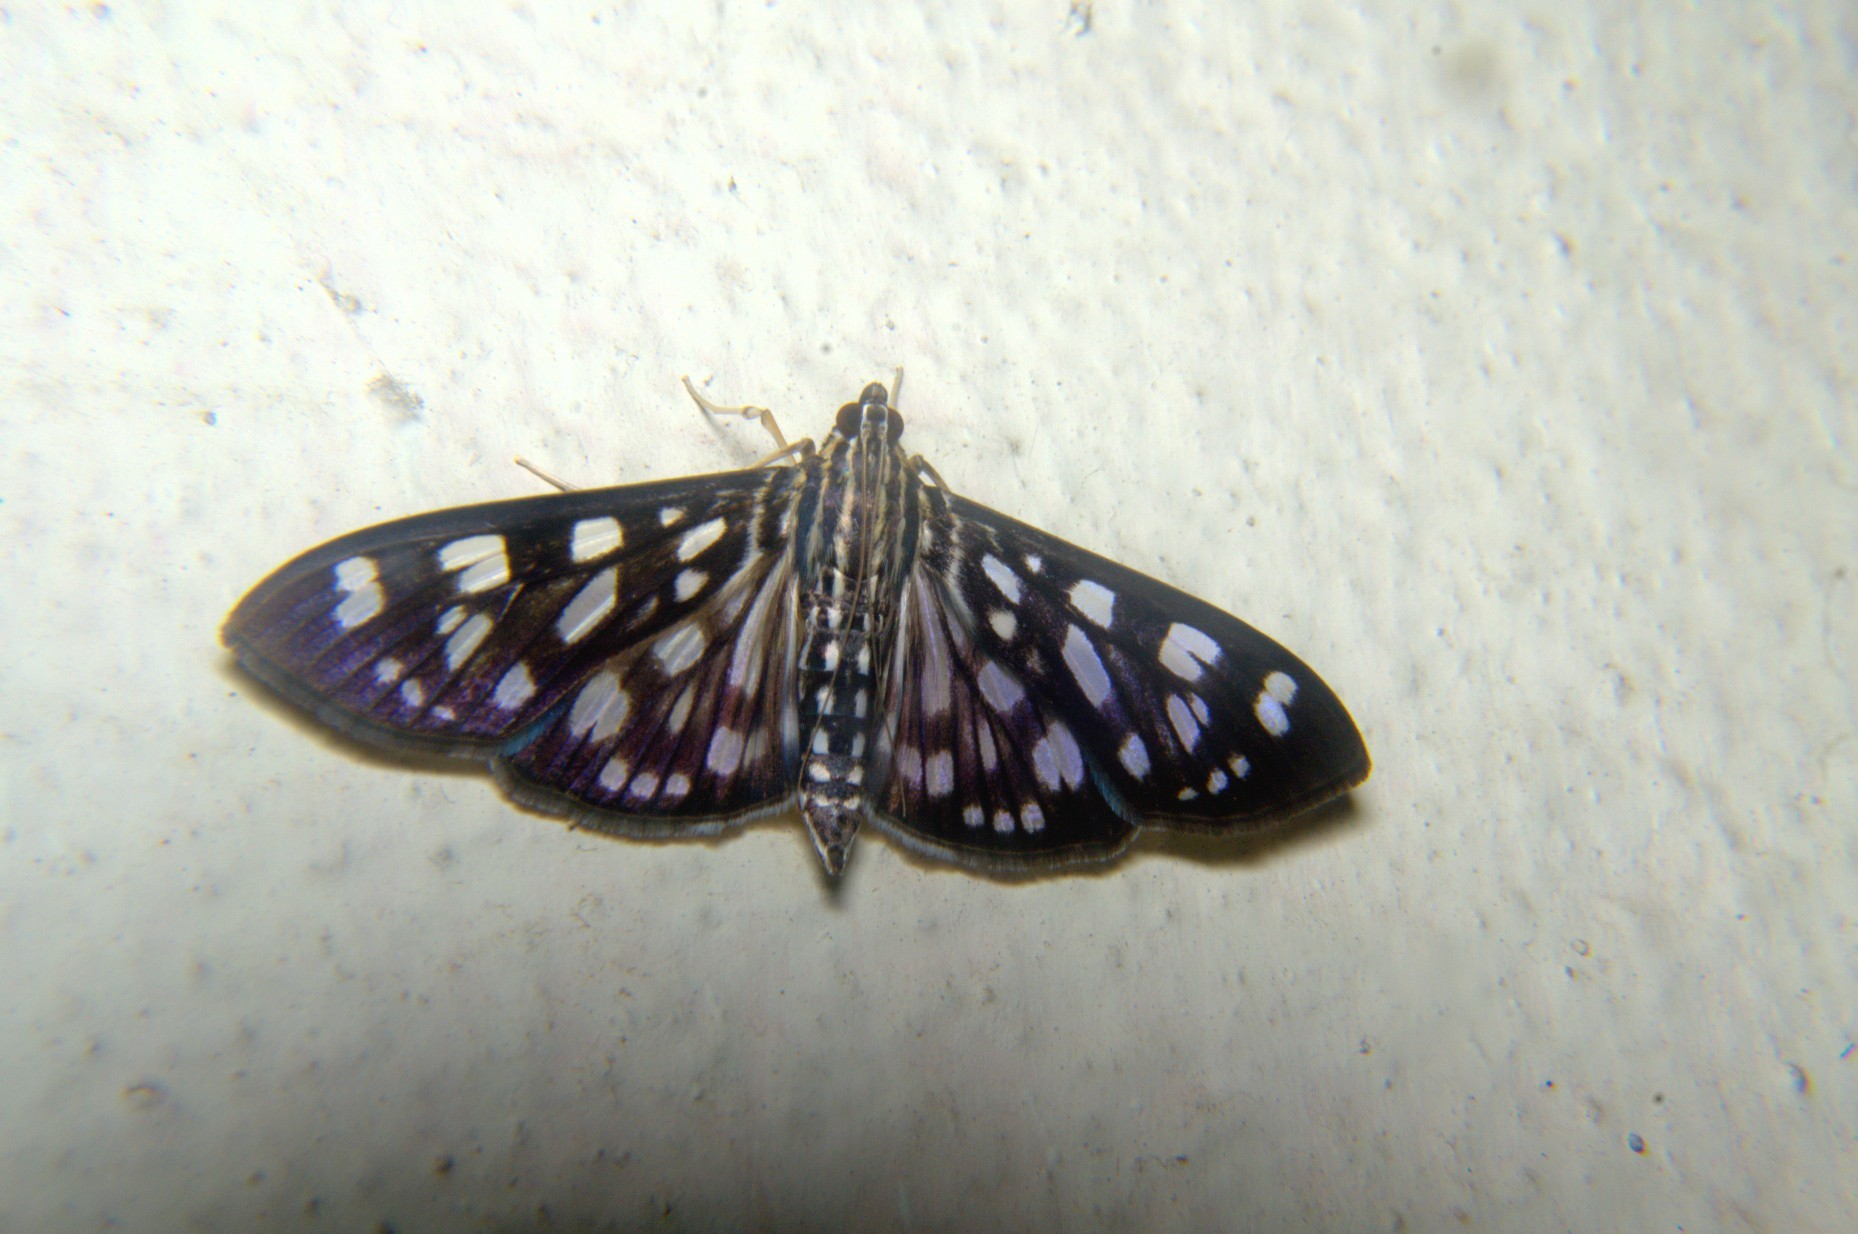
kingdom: Animalia
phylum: Arthropoda
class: Insecta
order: Lepidoptera
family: Crambidae
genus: Pygospila
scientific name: Pygospila tyres
